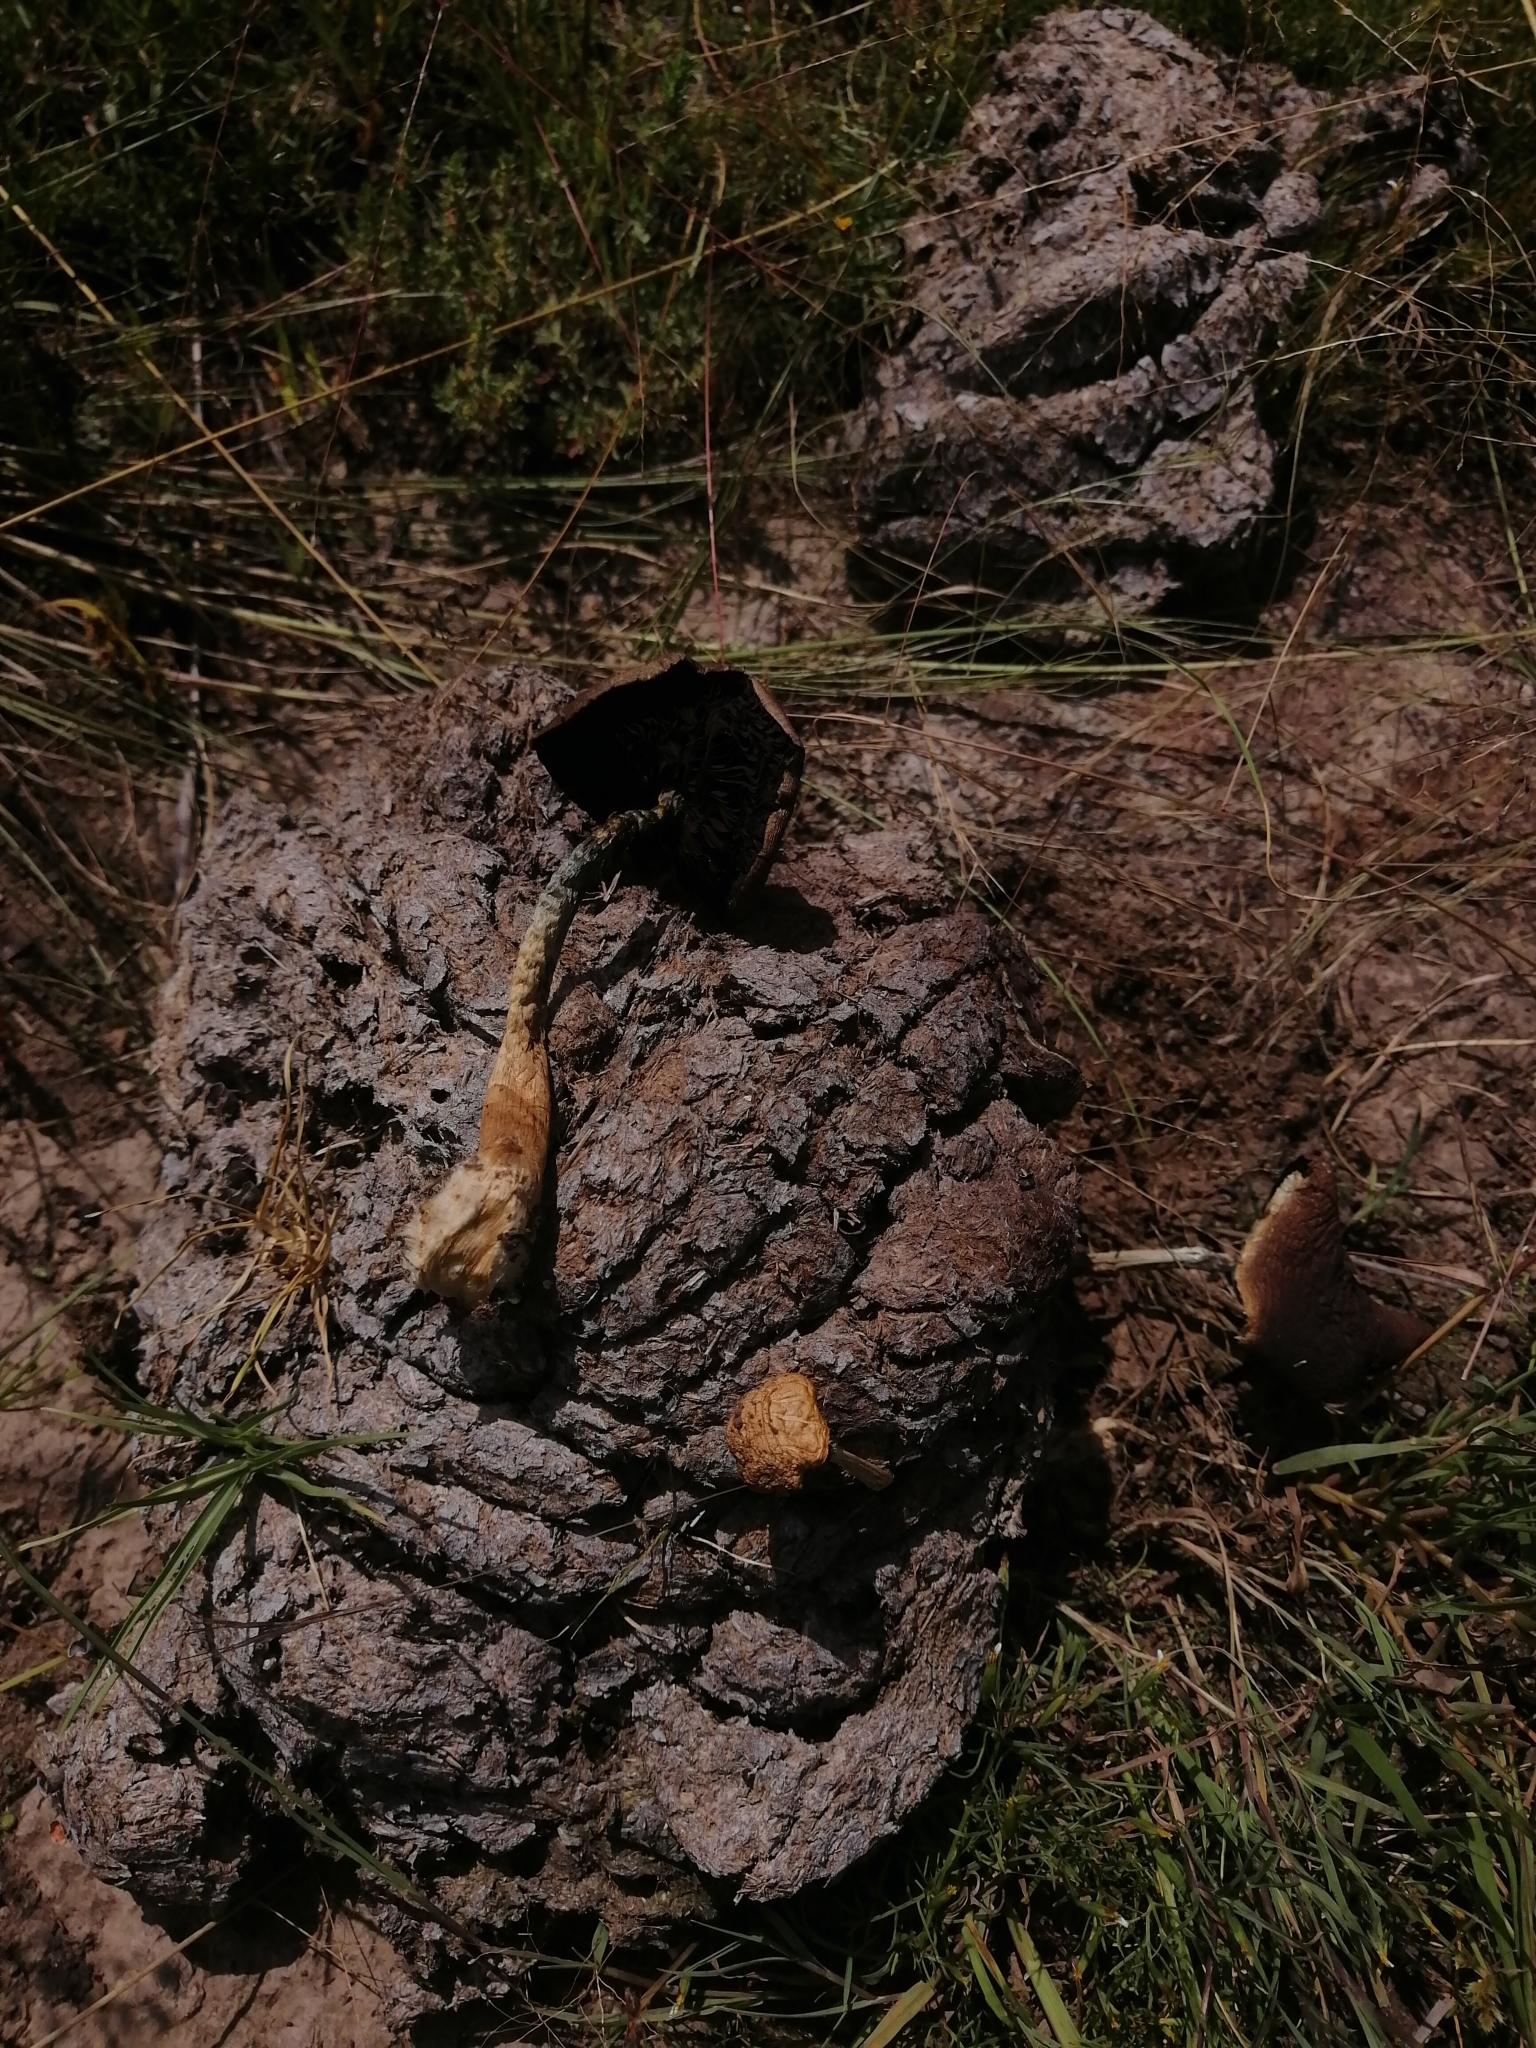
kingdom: Fungi
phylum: Basidiomycota
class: Agaricomycetes
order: Agaricales
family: Hymenogastraceae
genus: Psilocybe
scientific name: Psilocybe cubensis
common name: Golden brownie
